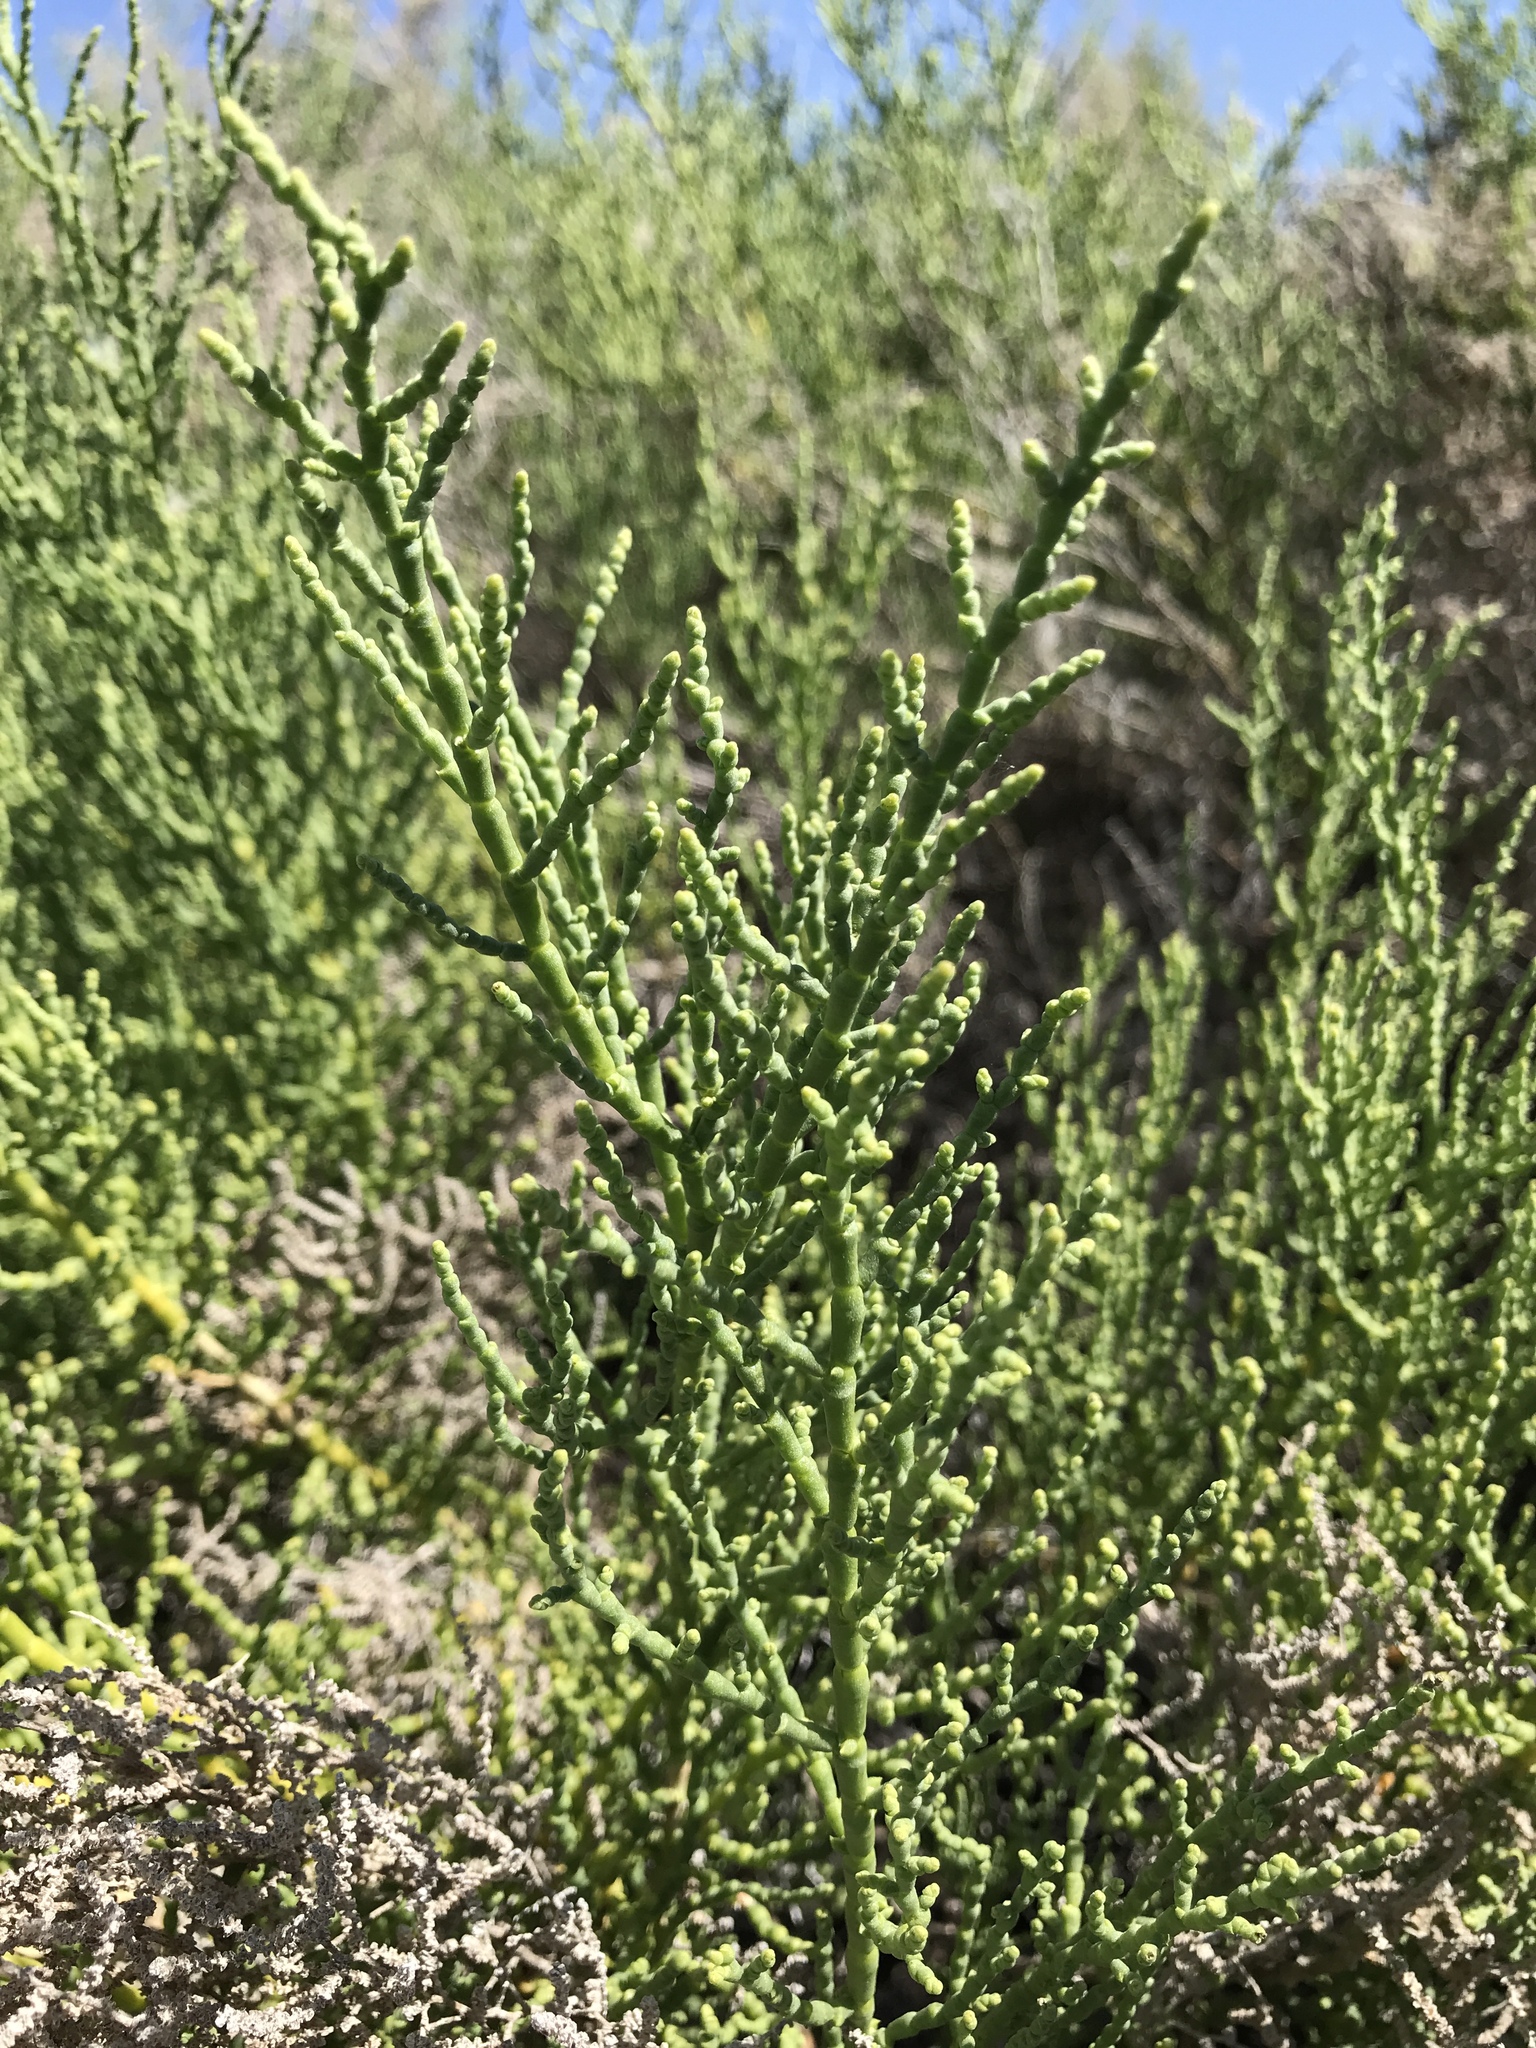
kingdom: Plantae
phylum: Tracheophyta
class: Magnoliopsida
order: Caryophyllales
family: Amaranthaceae
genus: Allenrolfea
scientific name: Allenrolfea occidentalis
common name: Iodine-bush
